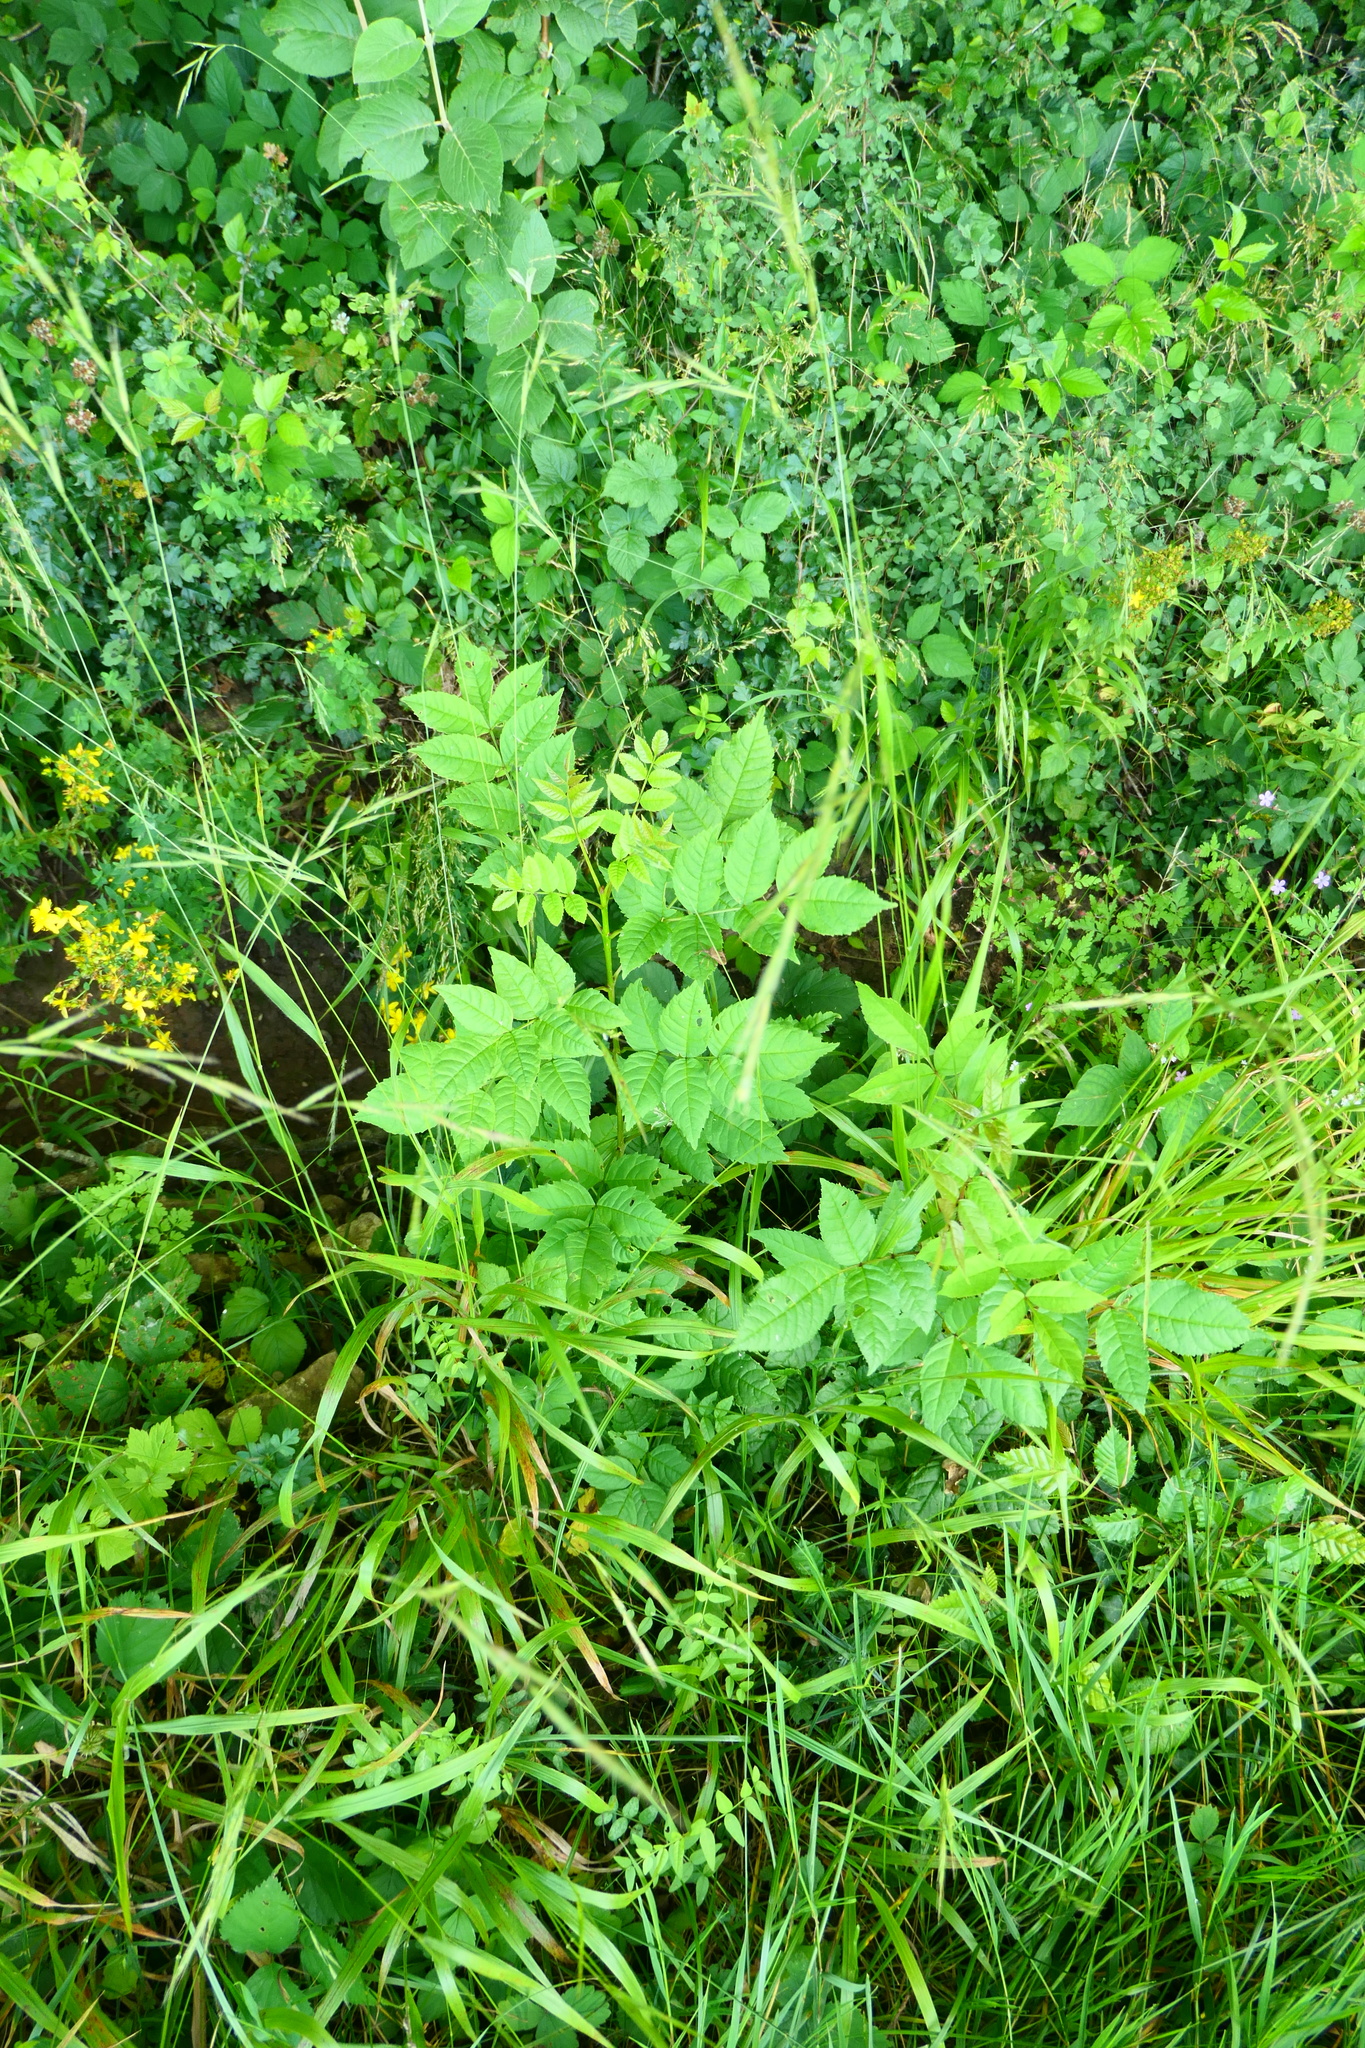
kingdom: Plantae
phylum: Tracheophyta
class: Magnoliopsida
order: Lamiales
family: Oleaceae
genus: Fraxinus
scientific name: Fraxinus excelsior
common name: European ash
